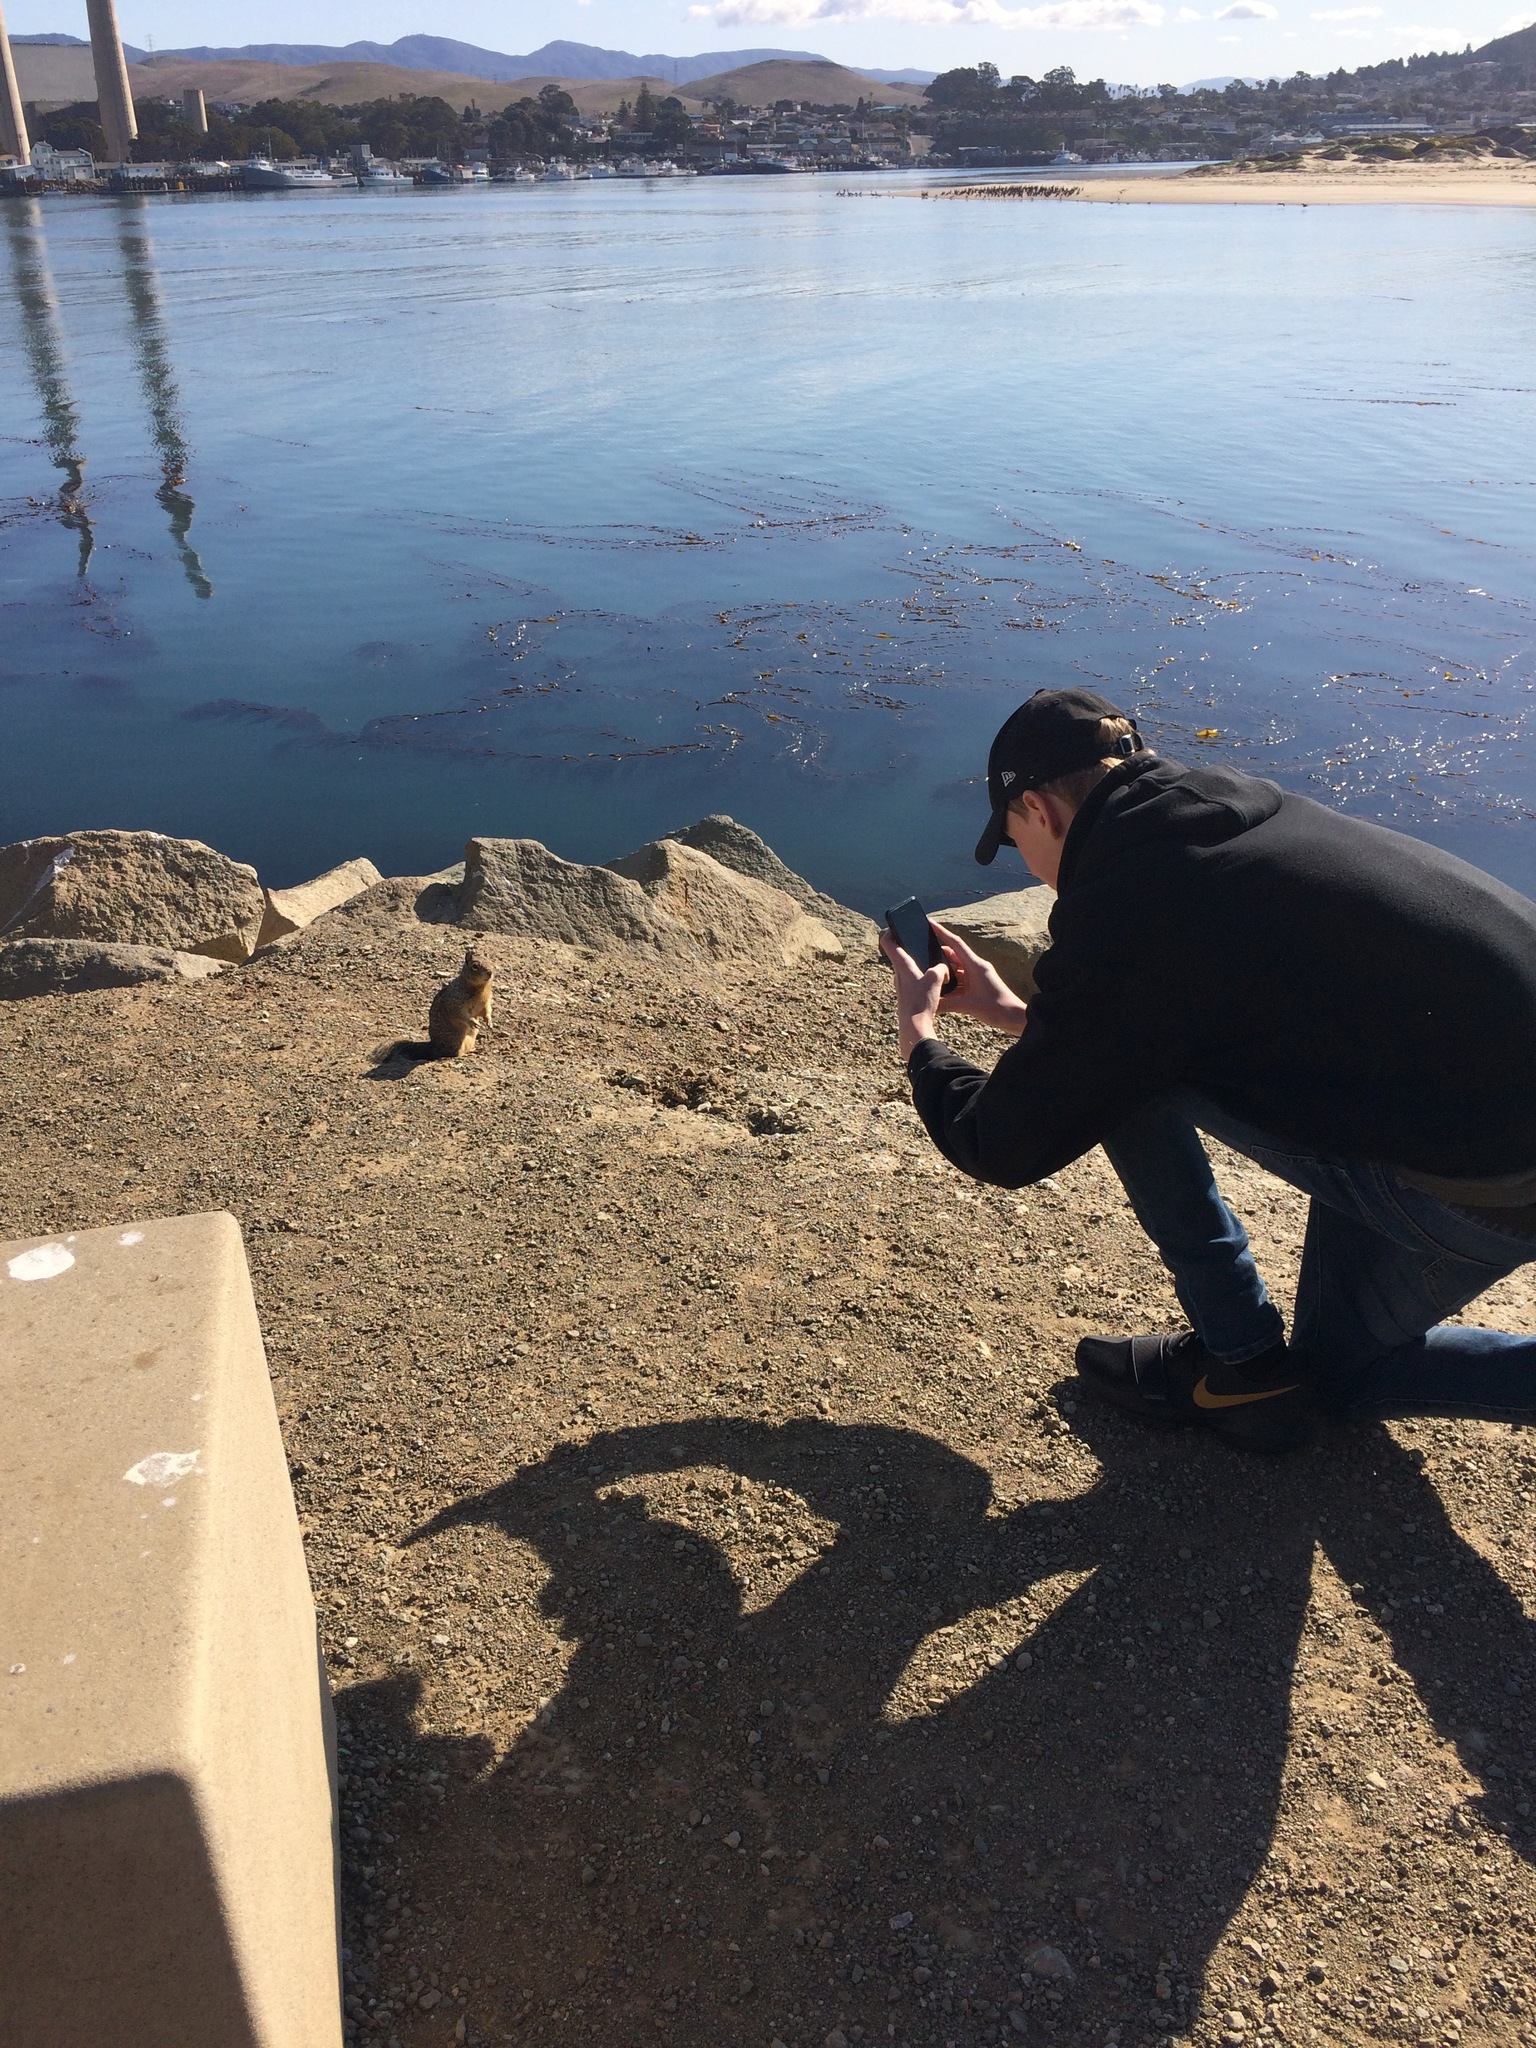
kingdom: Animalia
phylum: Chordata
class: Mammalia
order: Rodentia
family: Sciuridae
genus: Otospermophilus
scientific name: Otospermophilus beecheyi
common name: California ground squirrel
